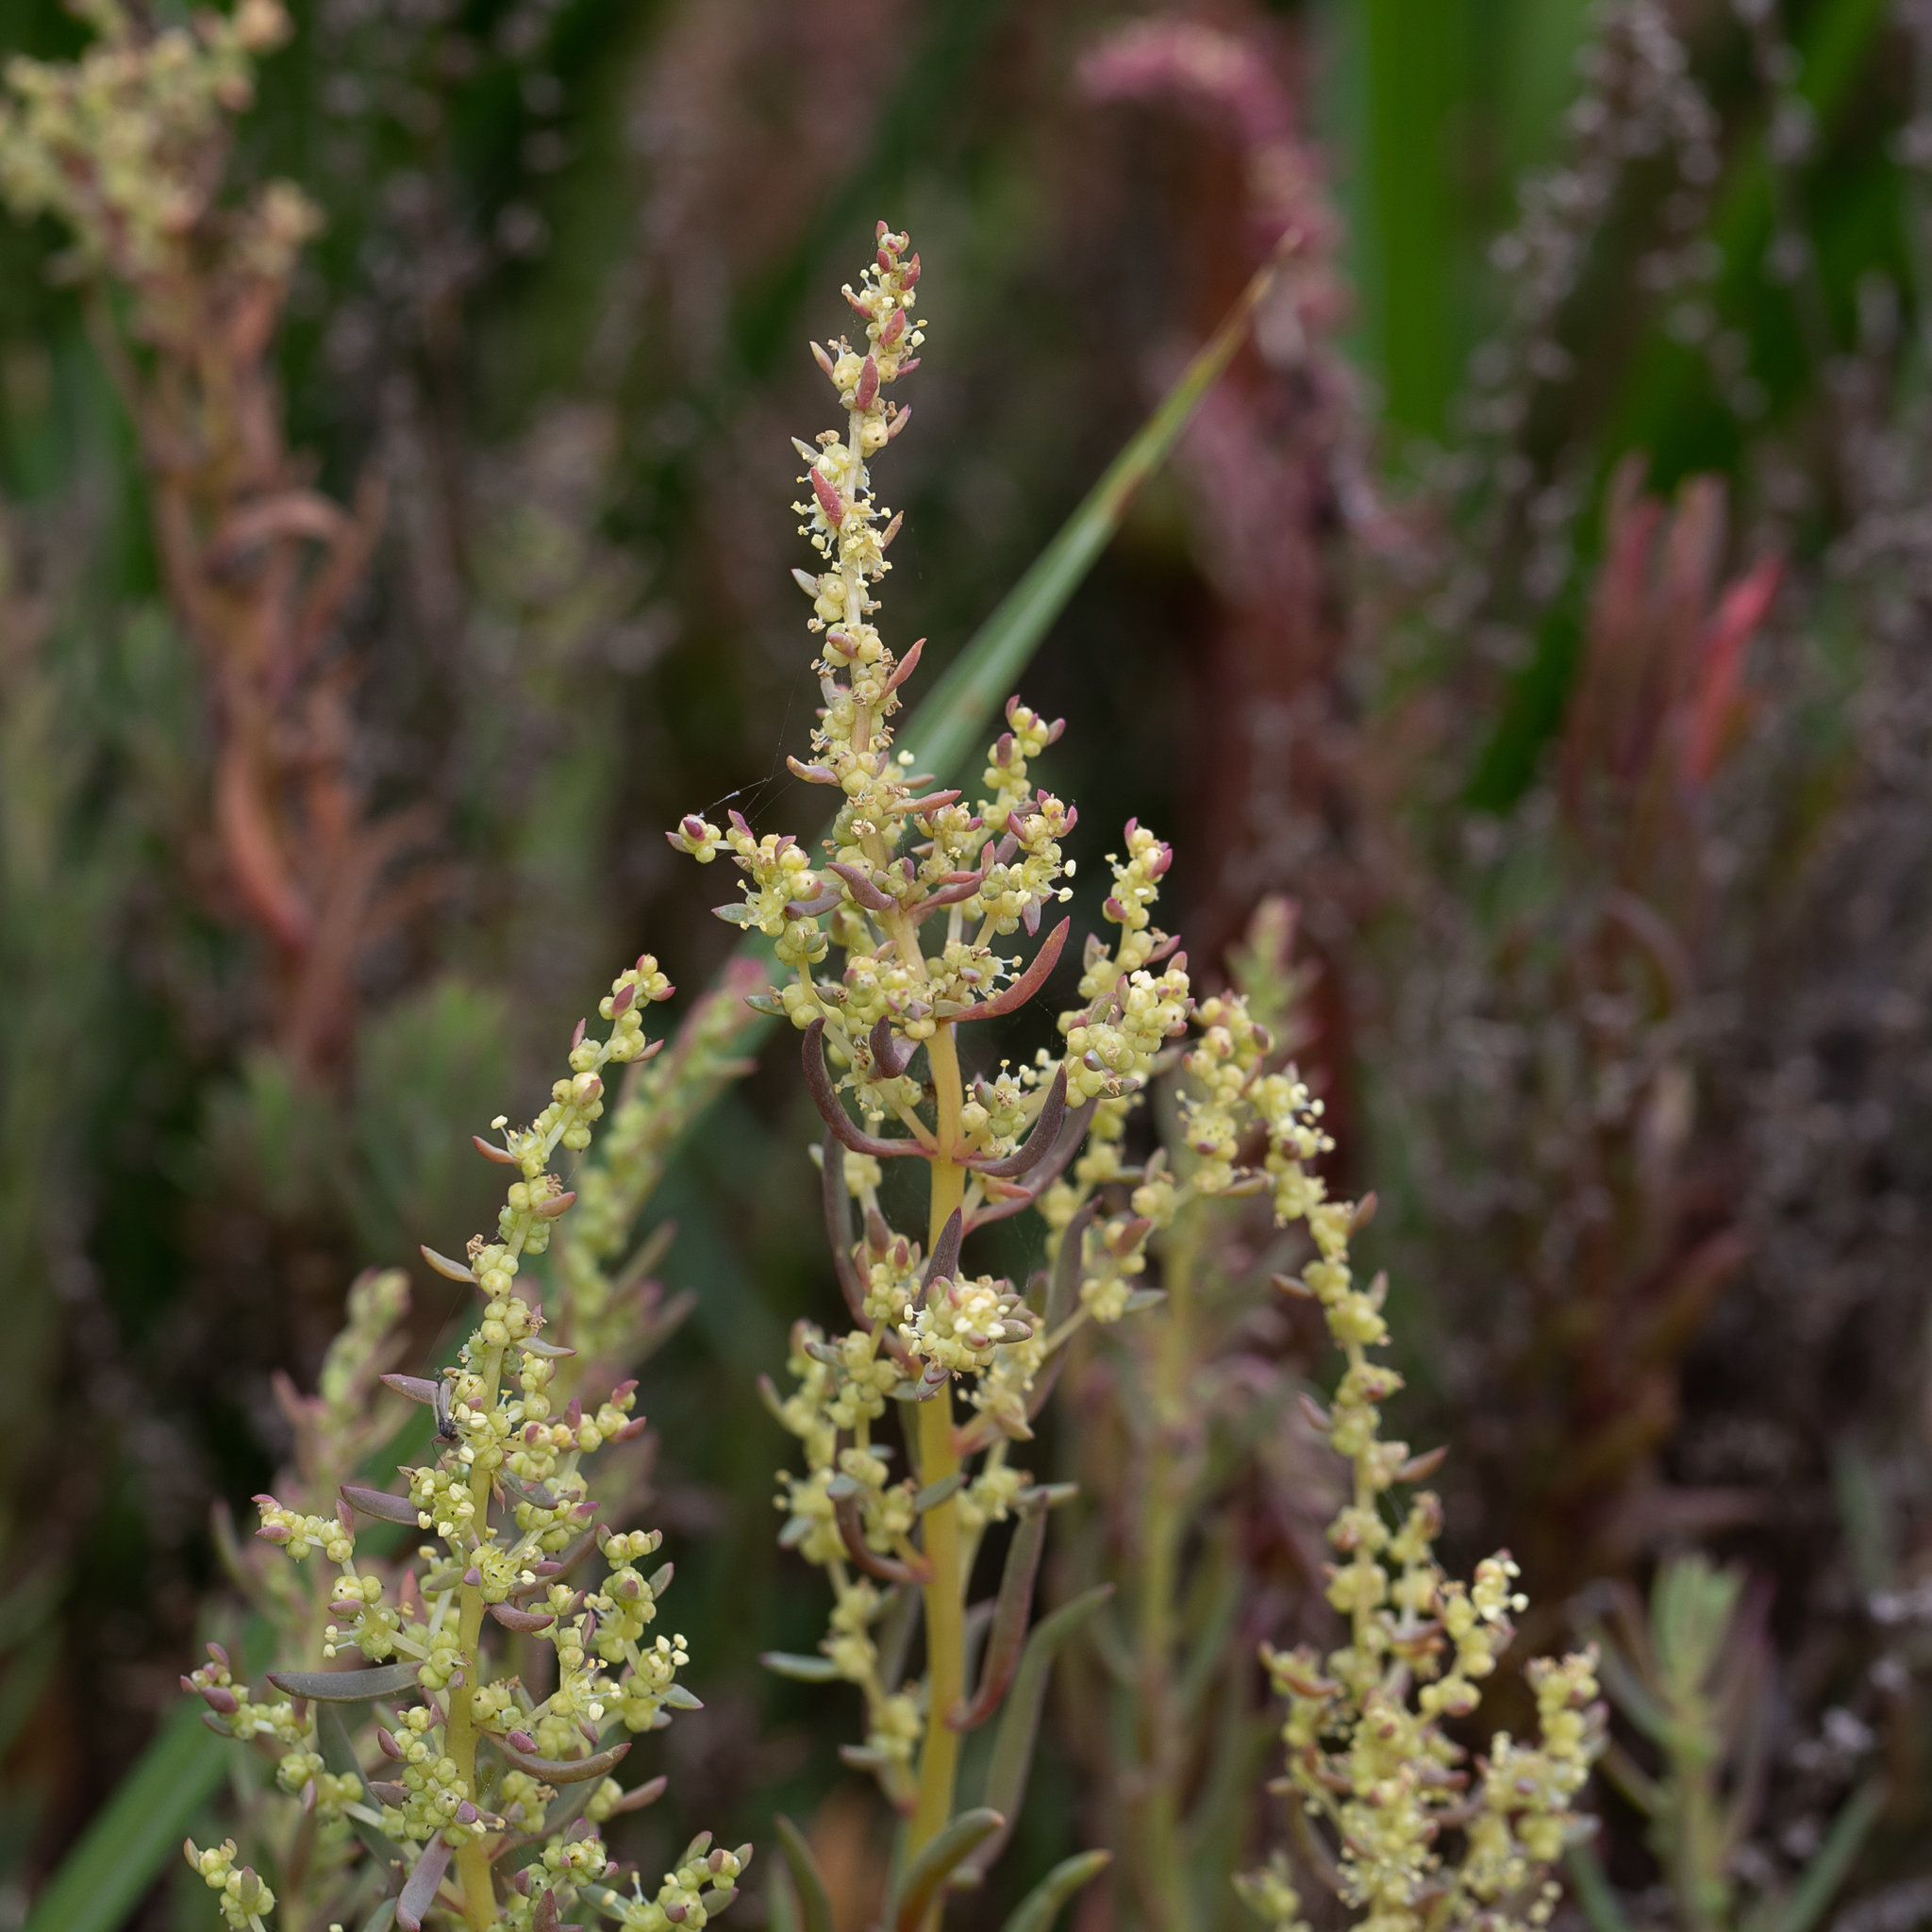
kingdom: Plantae
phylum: Tracheophyta
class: Magnoliopsida
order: Caryophyllales
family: Amaranthaceae
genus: Suaeda
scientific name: Suaeda australis
